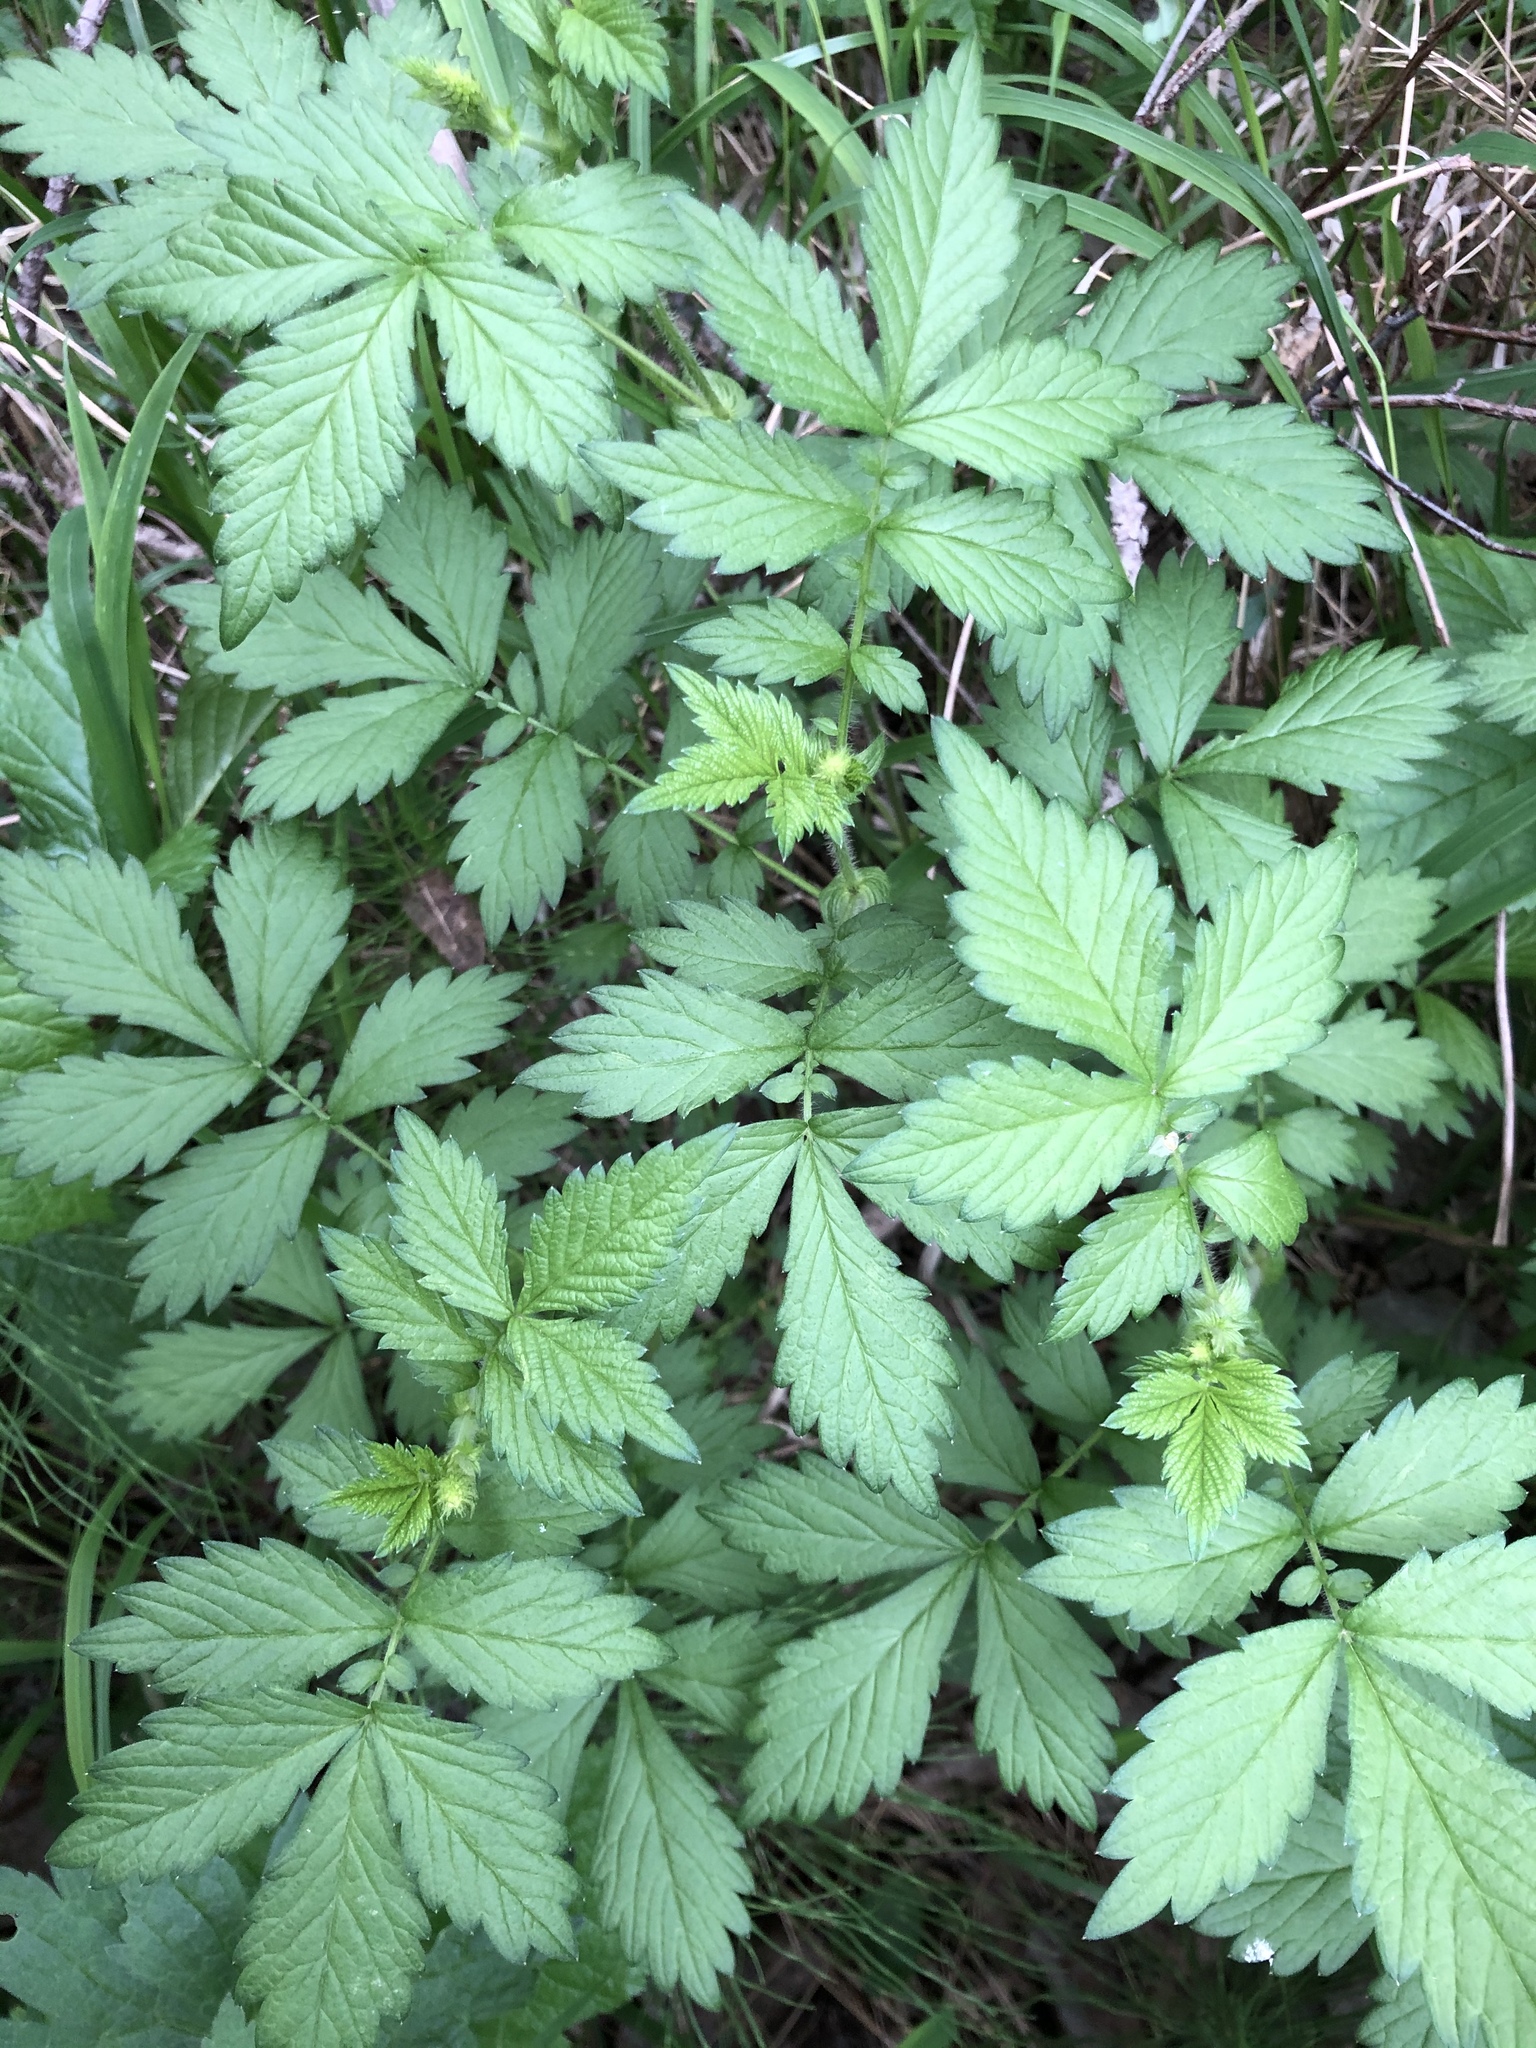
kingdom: Plantae
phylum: Tracheophyta
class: Magnoliopsida
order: Rosales
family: Rosaceae
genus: Agrimonia
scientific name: Agrimonia pilosa
